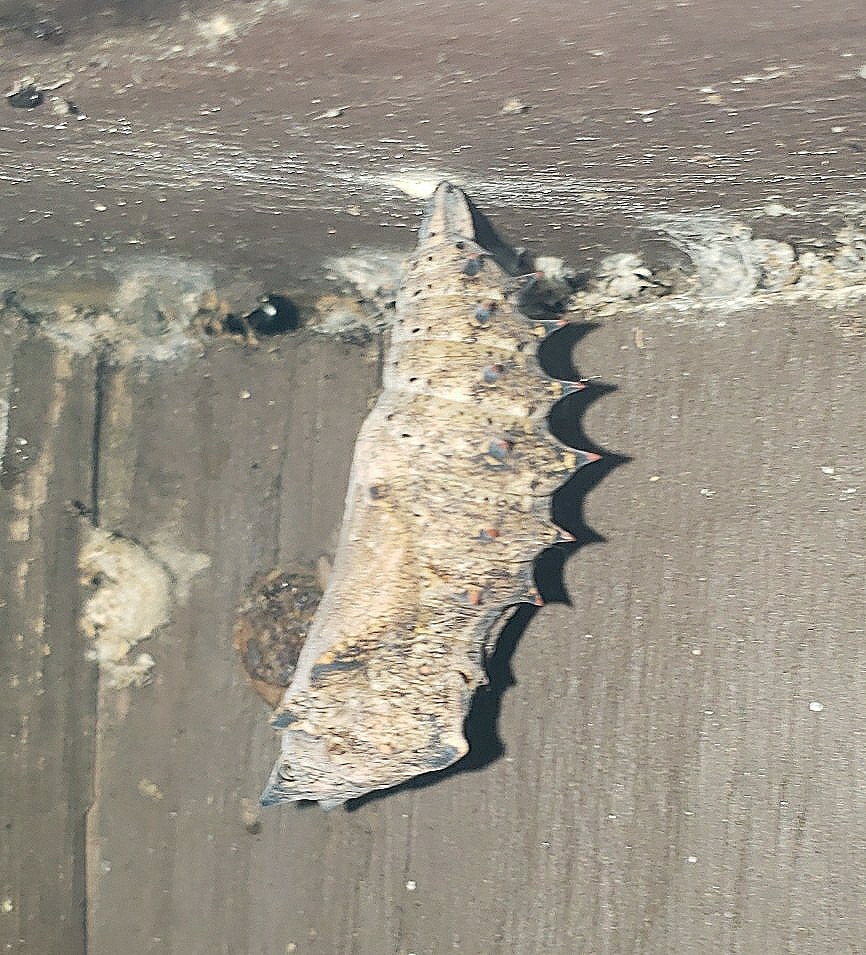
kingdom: Animalia
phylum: Arthropoda
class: Insecta
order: Lepidoptera
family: Nymphalidae
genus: Nymphalis
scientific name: Nymphalis antiopa
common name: Camberwell beauty
